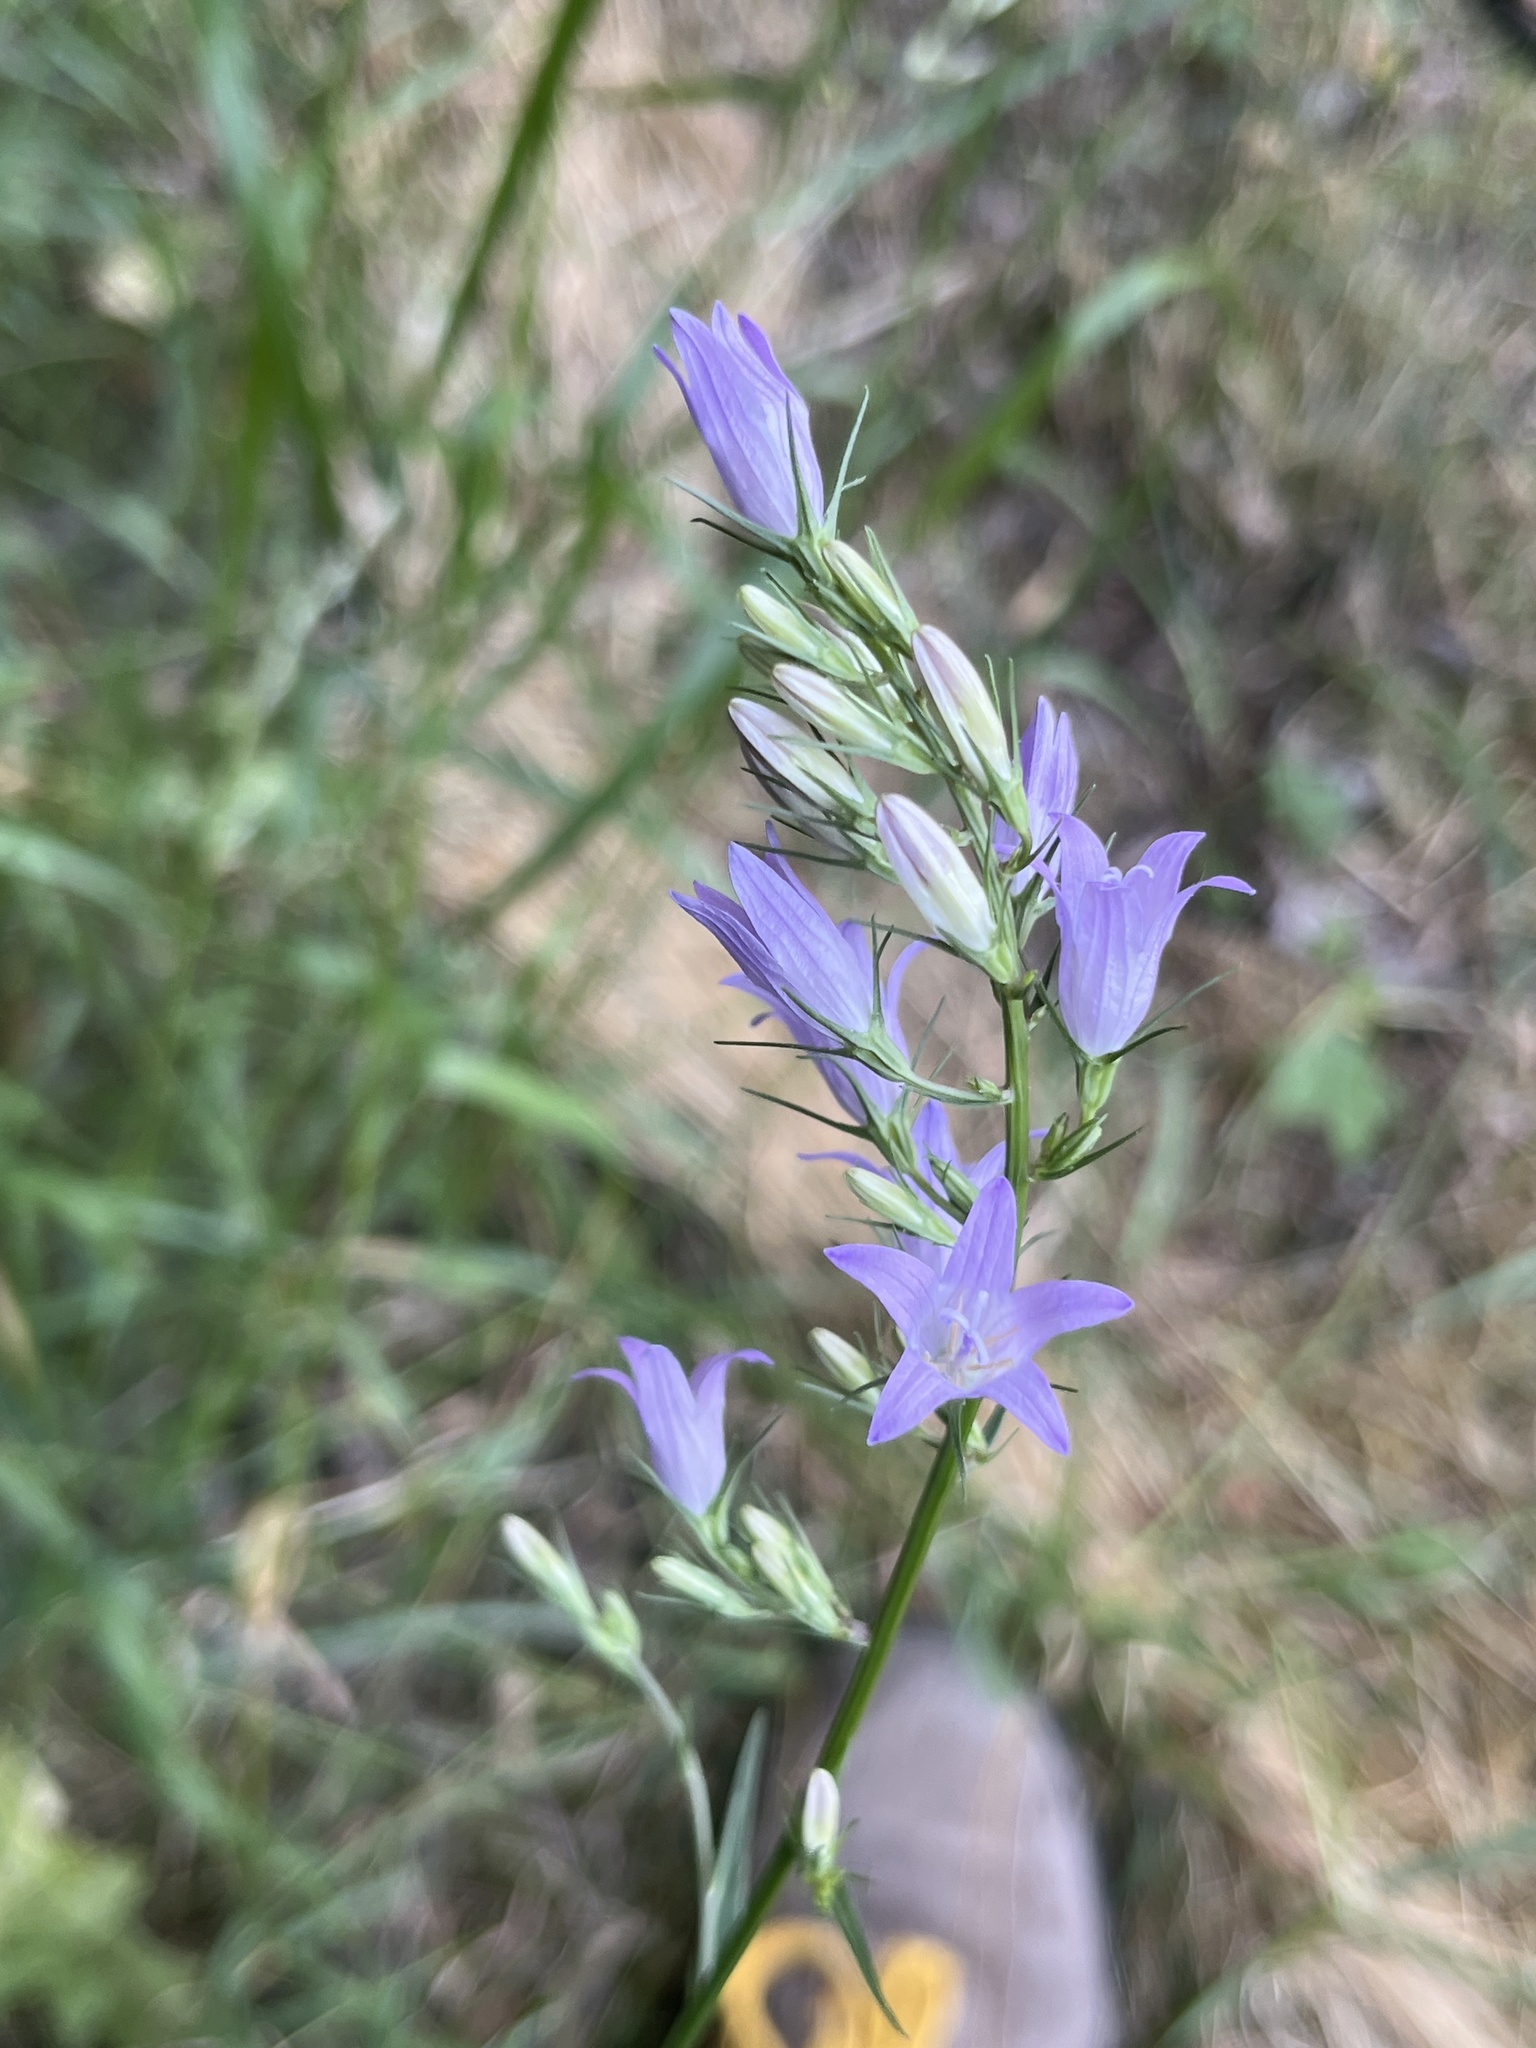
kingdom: Plantae
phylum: Tracheophyta
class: Magnoliopsida
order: Asterales
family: Campanulaceae
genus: Campanula
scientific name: Campanula patula
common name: Spreading bellflower
